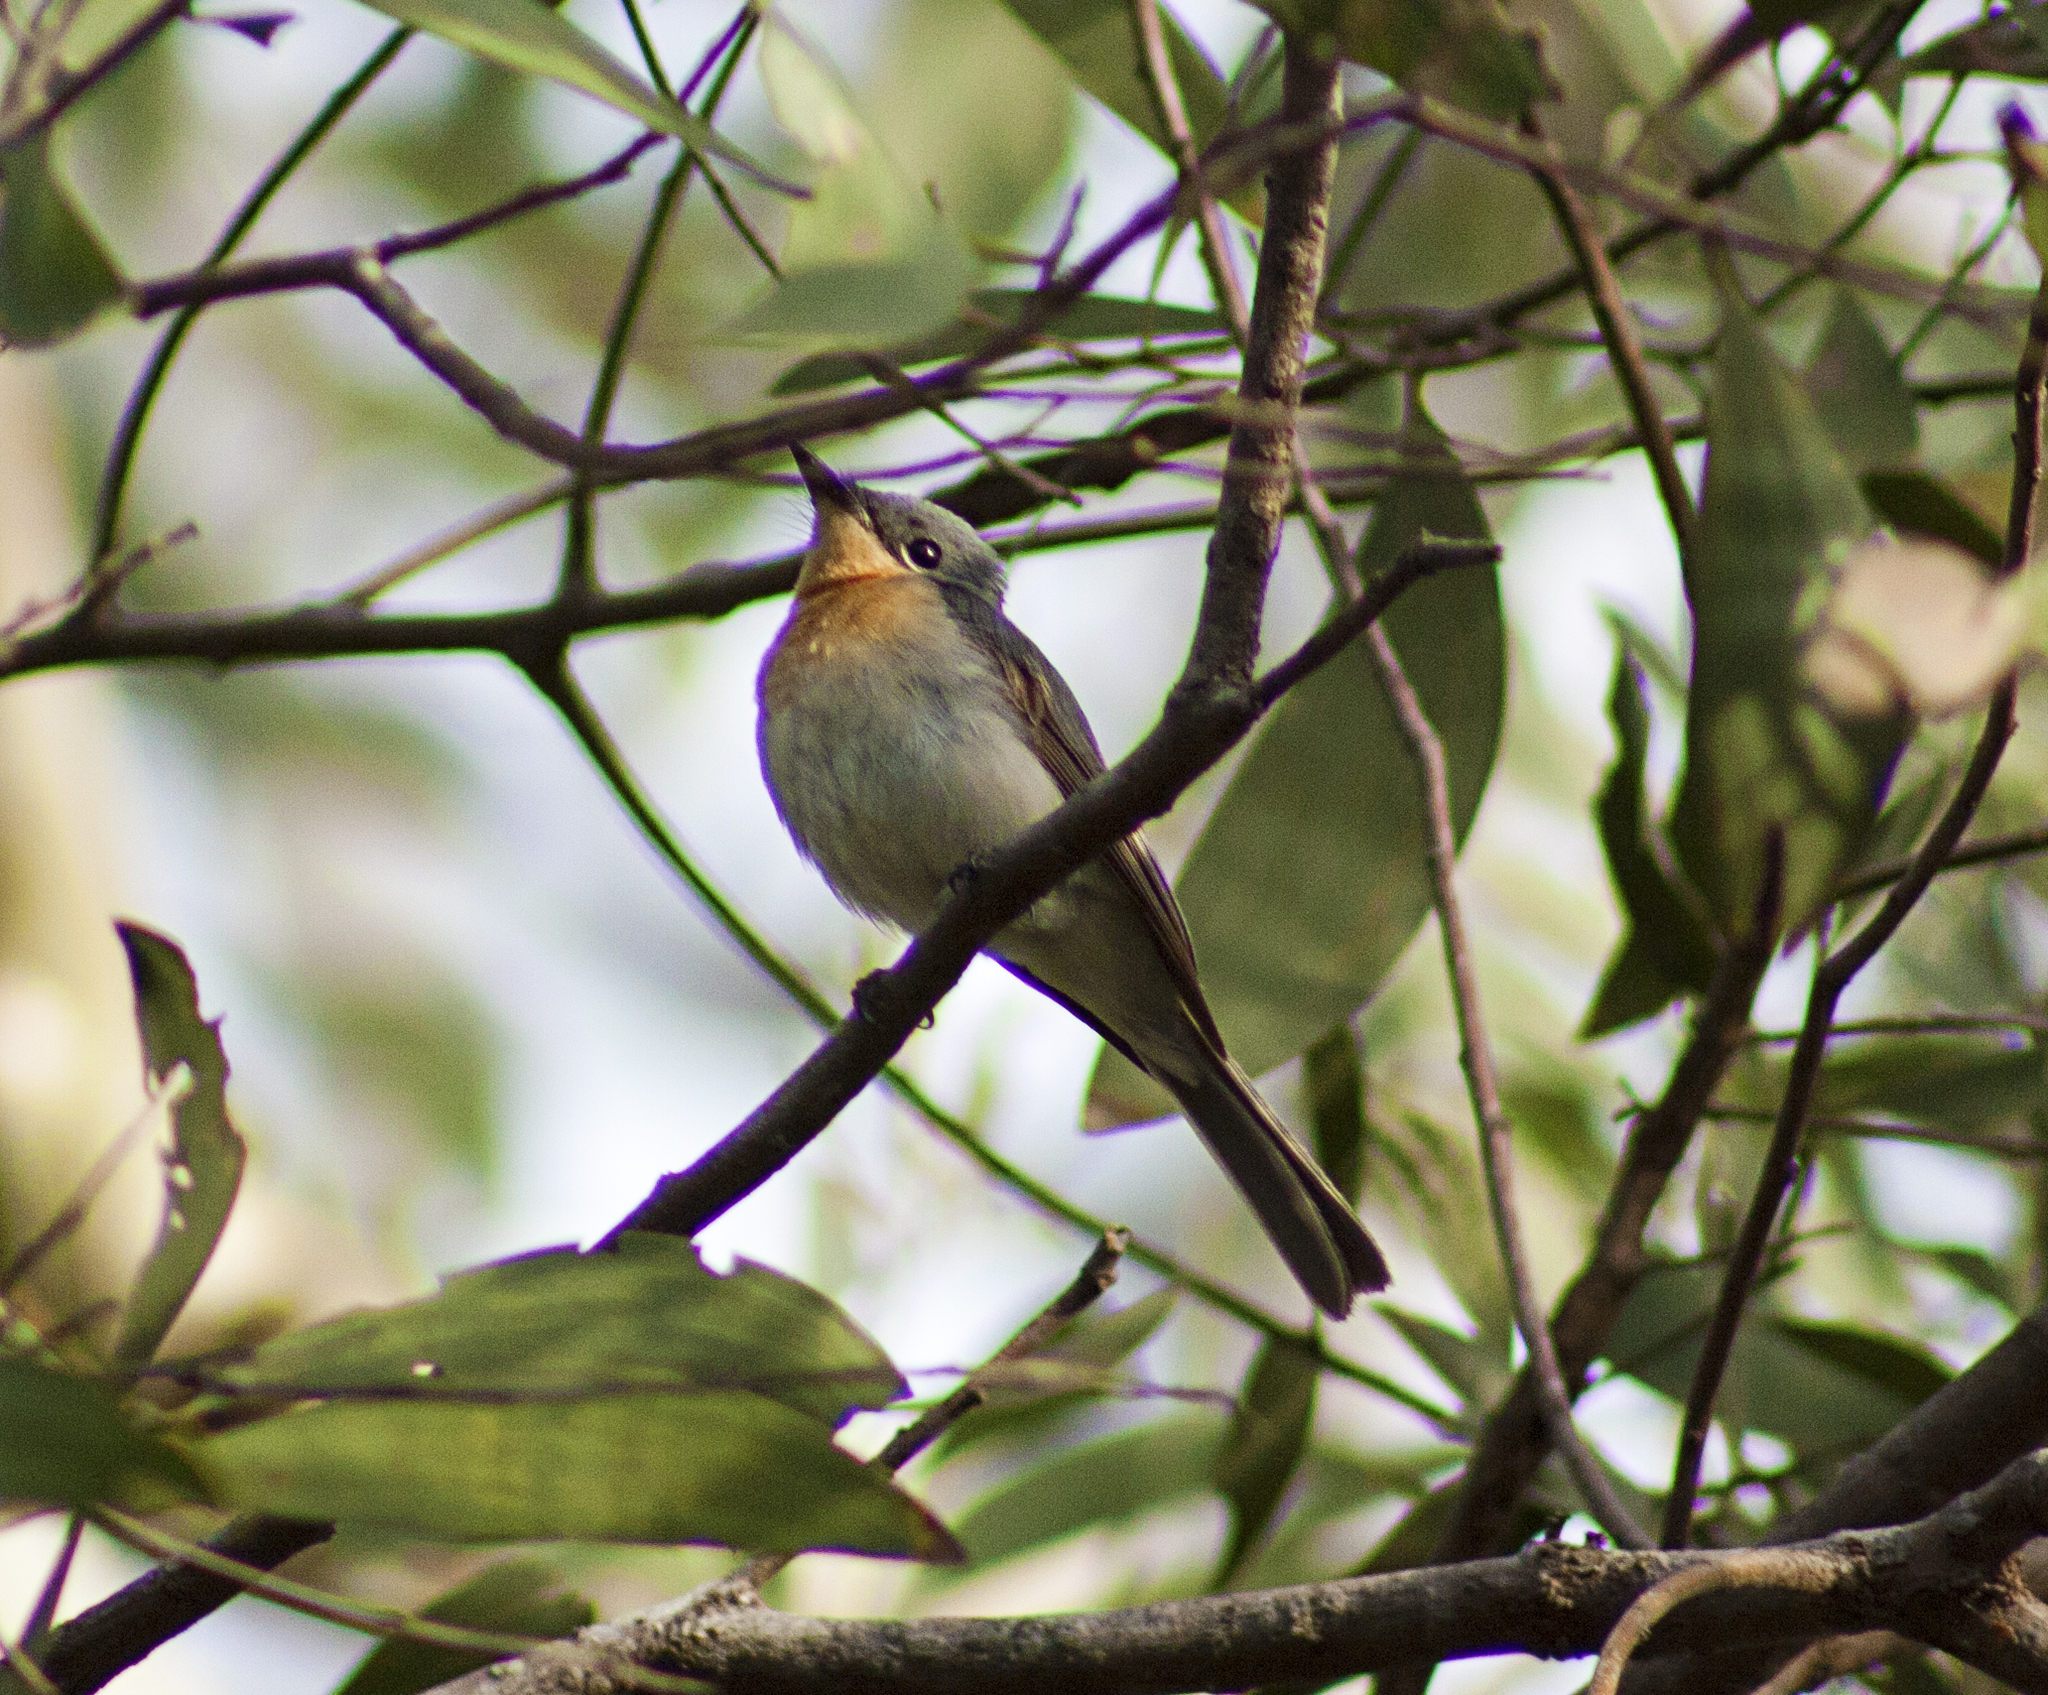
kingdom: Animalia
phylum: Chordata
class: Aves
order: Passeriformes
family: Monarchidae
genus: Myiagra
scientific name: Myiagra rubecula
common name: Leaden flycatcher
